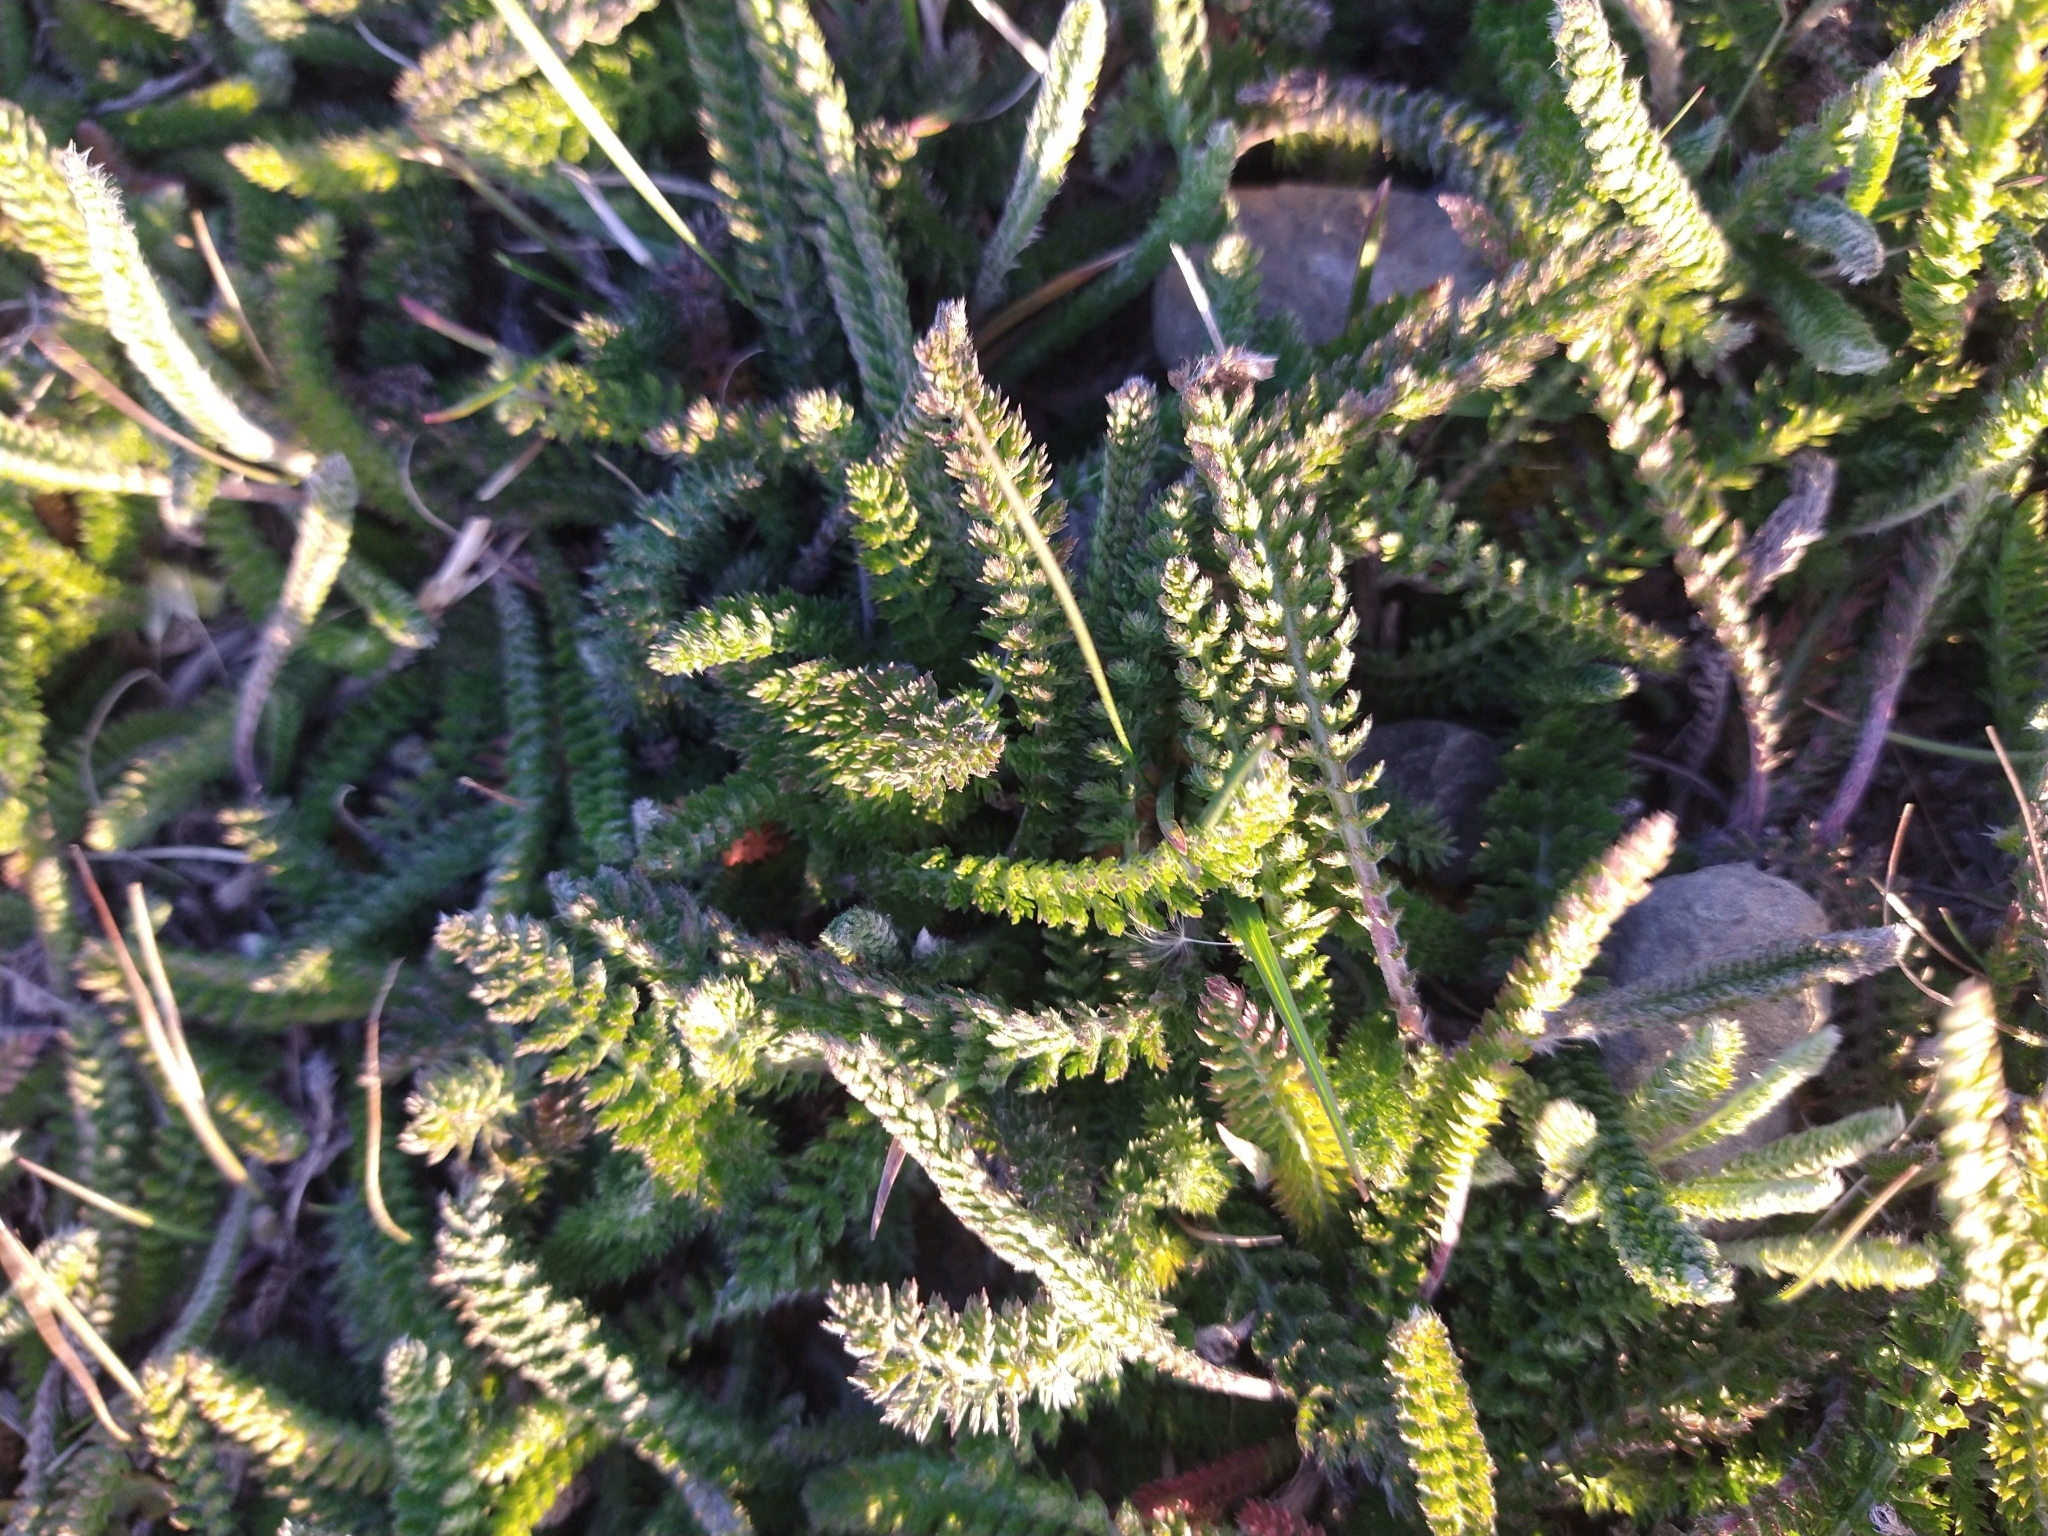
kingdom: Plantae
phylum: Tracheophyta
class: Magnoliopsida
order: Asterales
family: Asteraceae
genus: Achillea
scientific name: Achillea millefolium
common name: Yarrow
